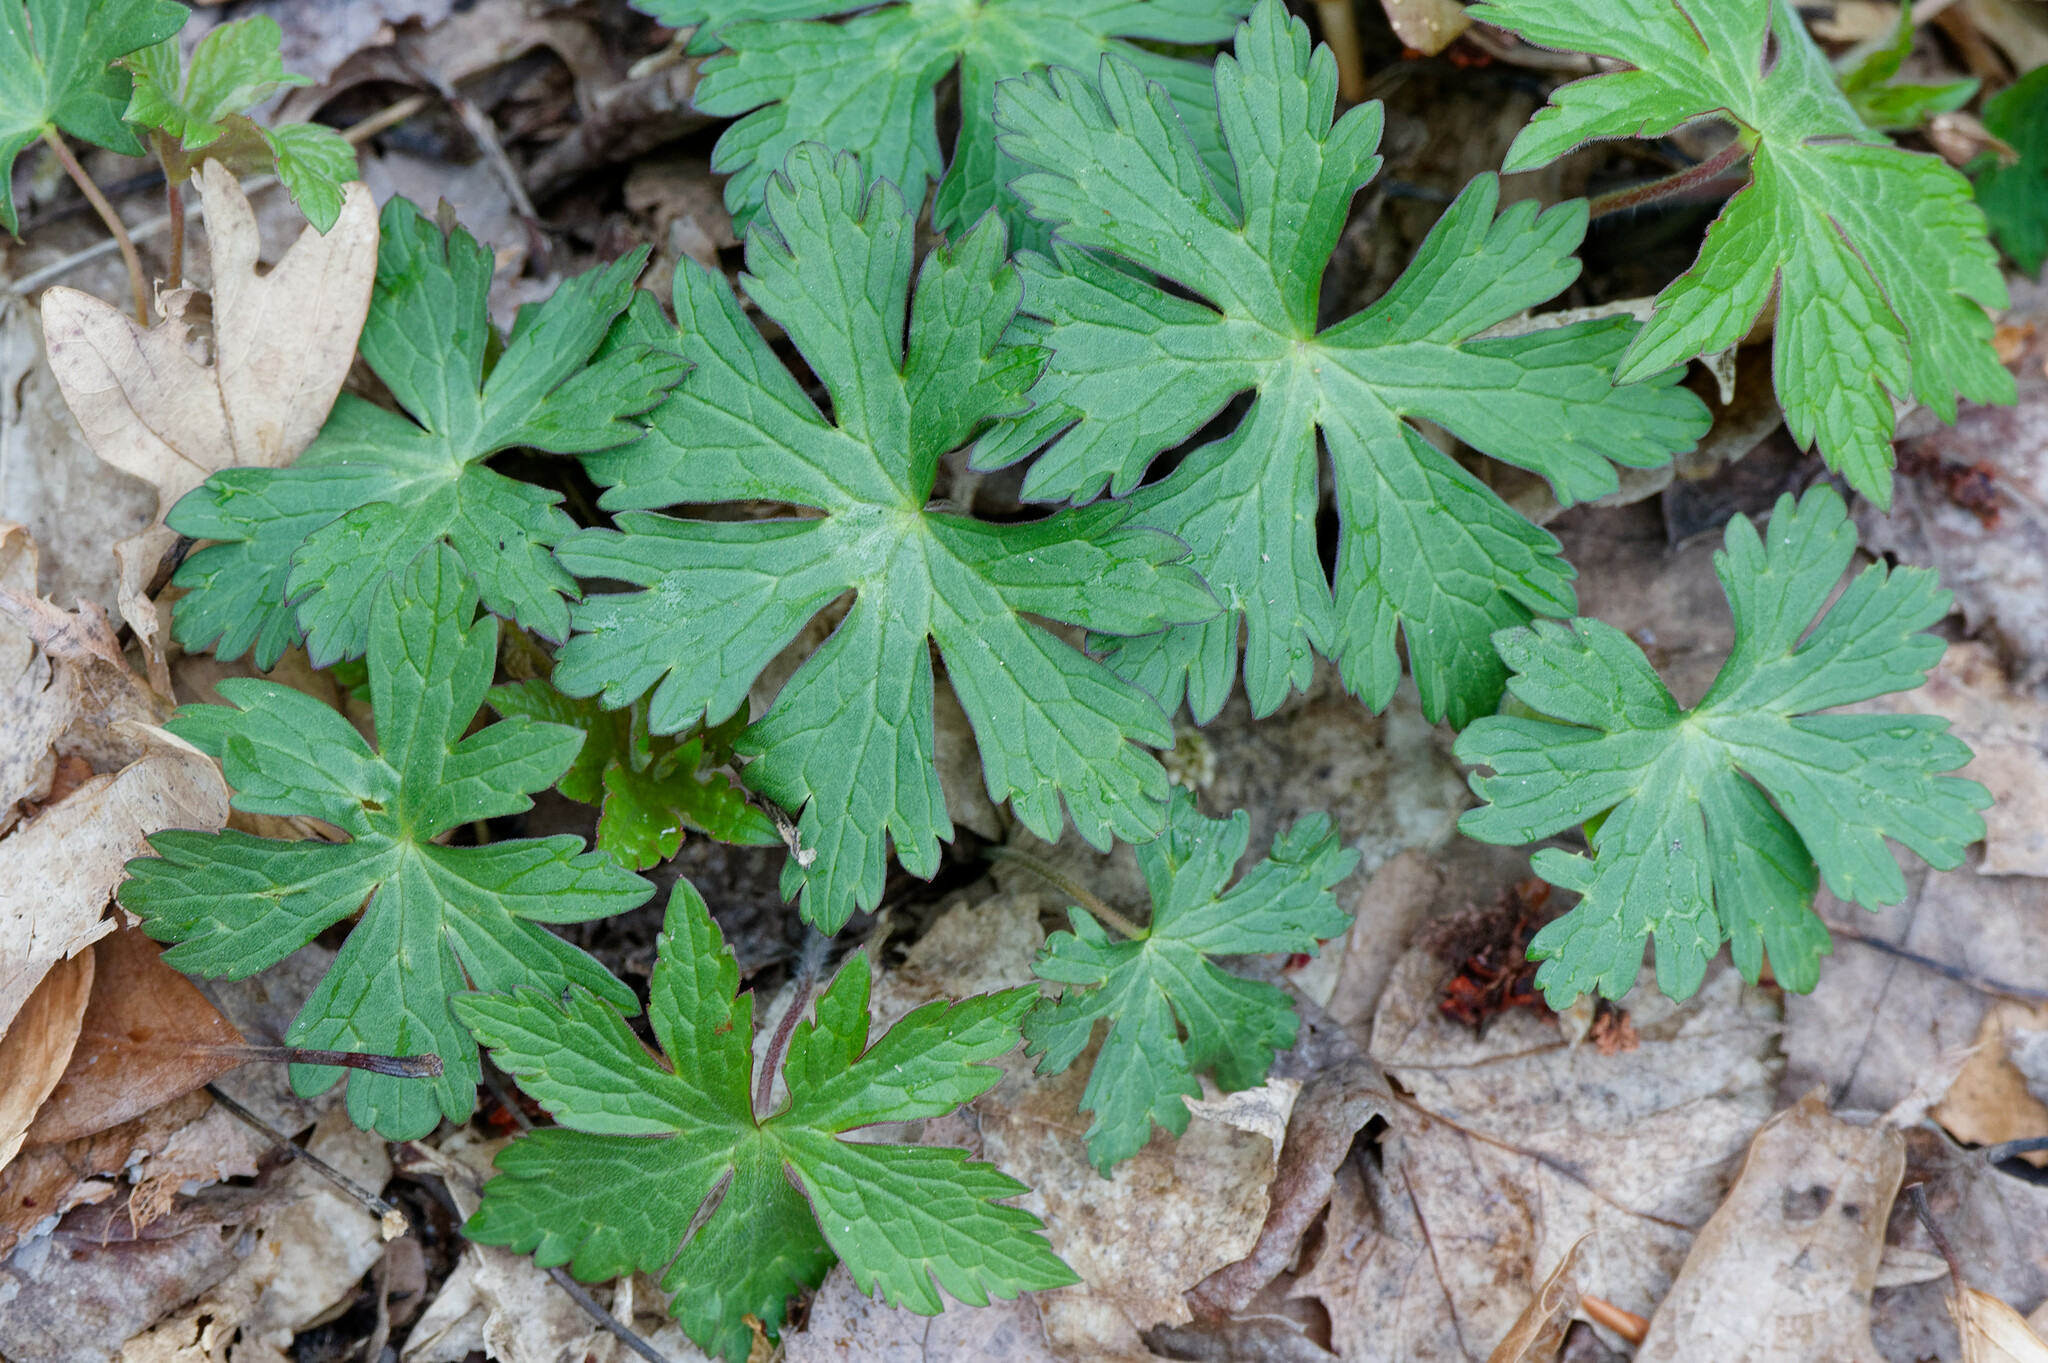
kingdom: Plantae
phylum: Tracheophyta
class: Magnoliopsida
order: Geraniales
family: Geraniaceae
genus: Geranium
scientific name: Geranium maculatum
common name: Spotted geranium
